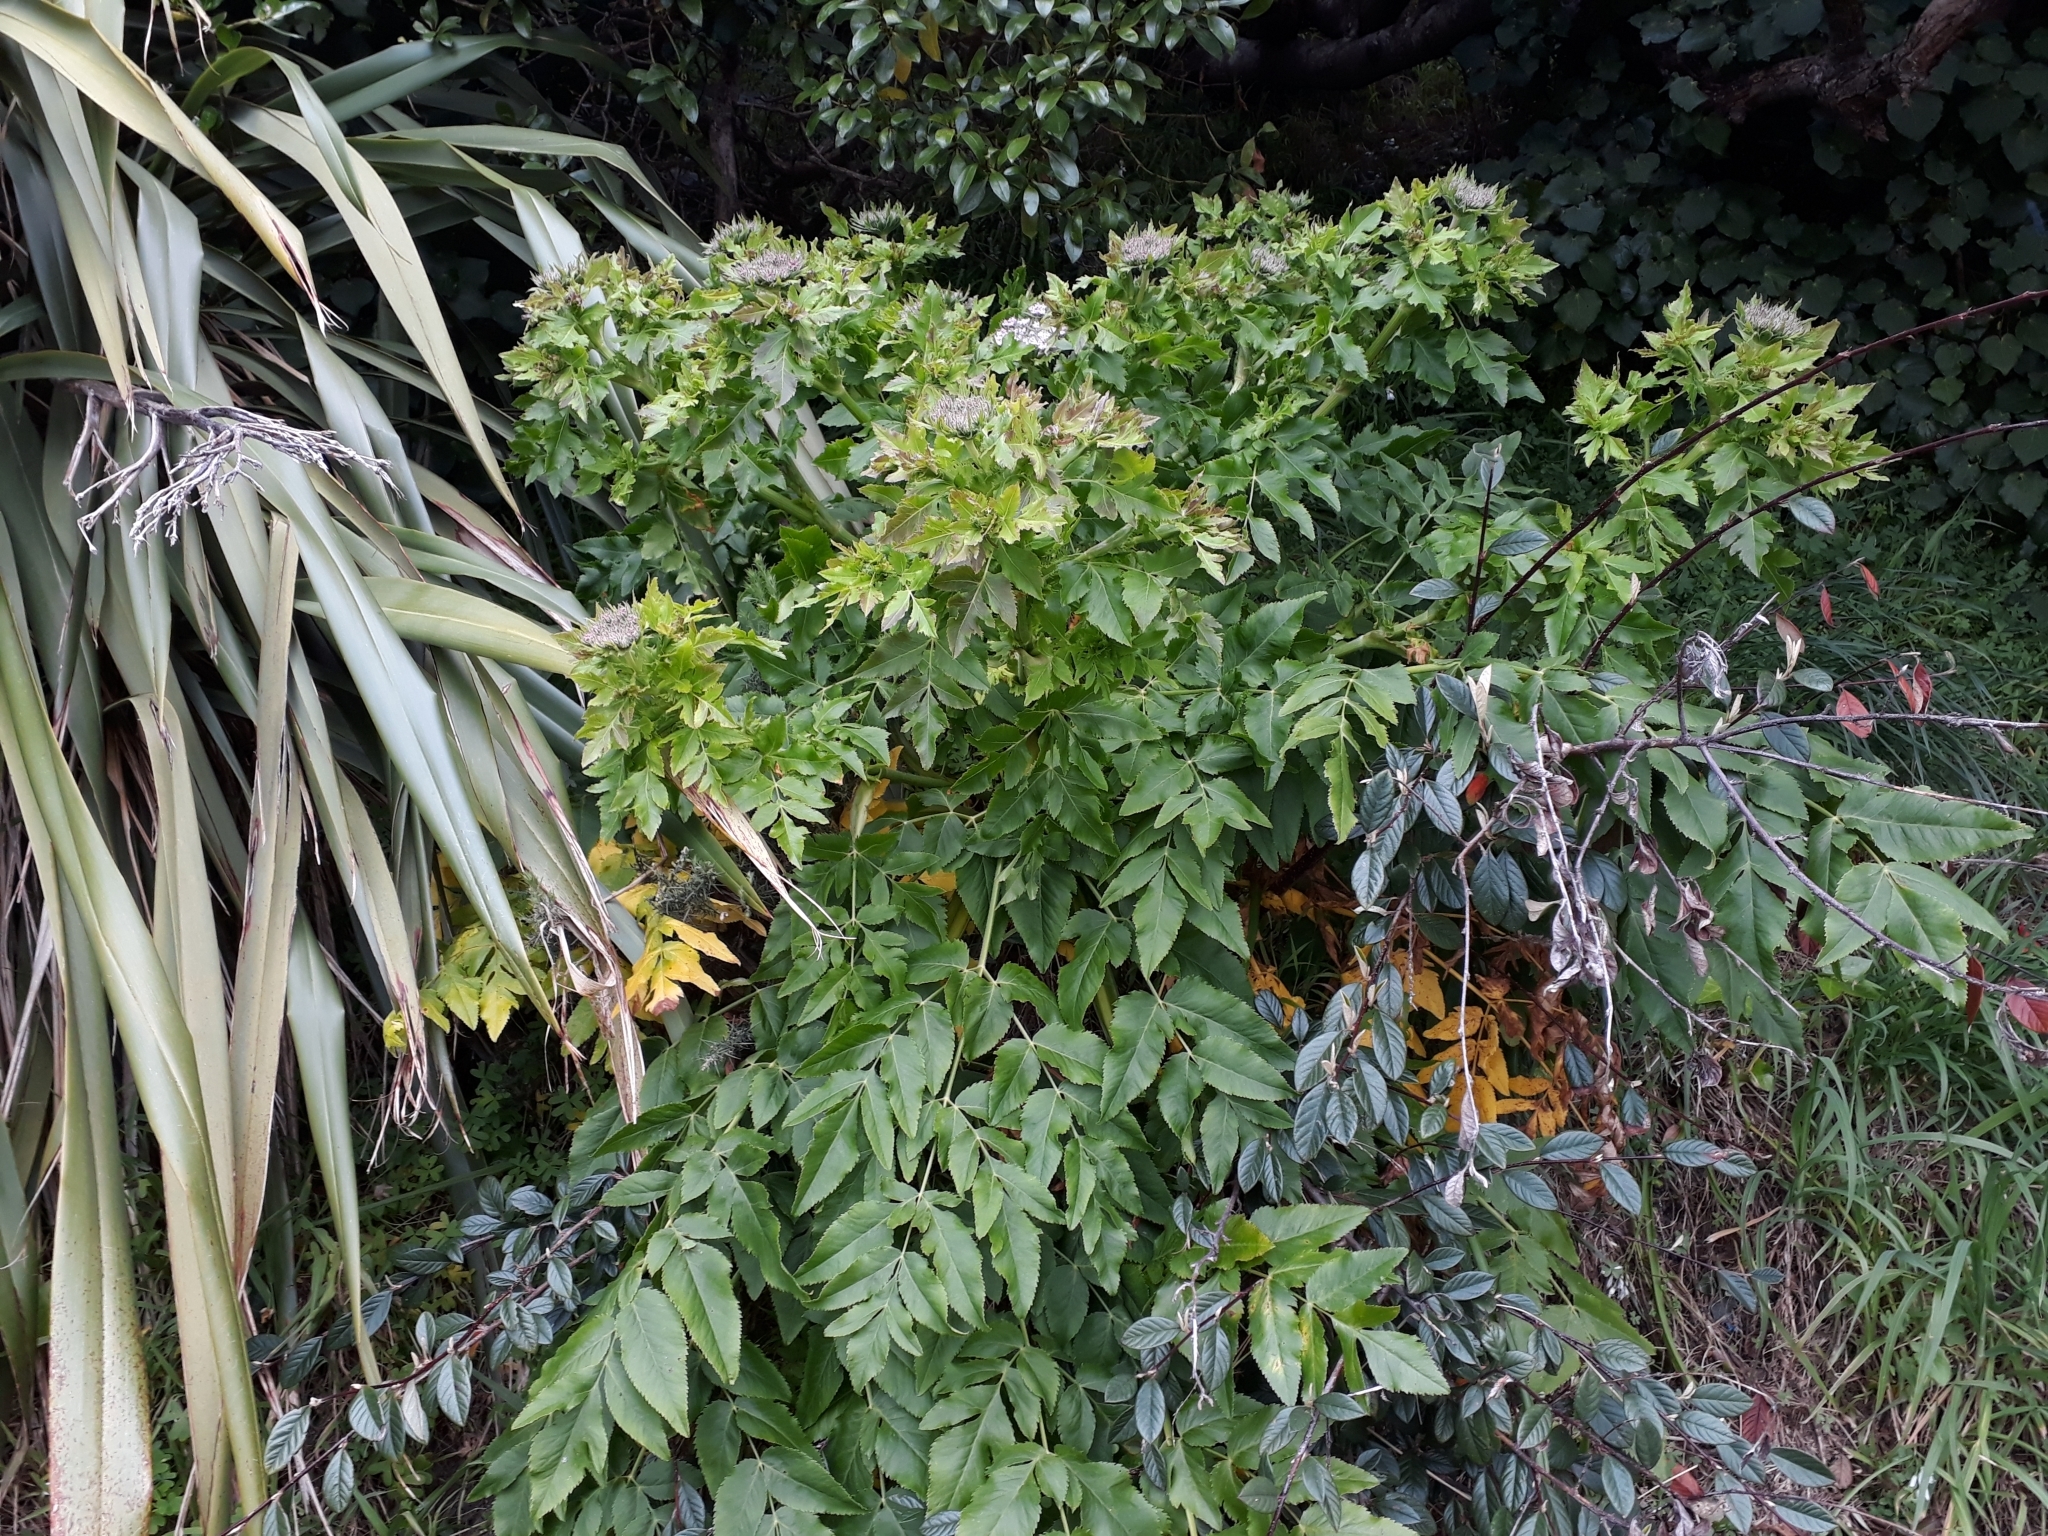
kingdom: Plantae
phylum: Tracheophyta
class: Magnoliopsida
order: Apiales
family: Apiaceae
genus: Daucus
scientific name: Daucus decipiens
